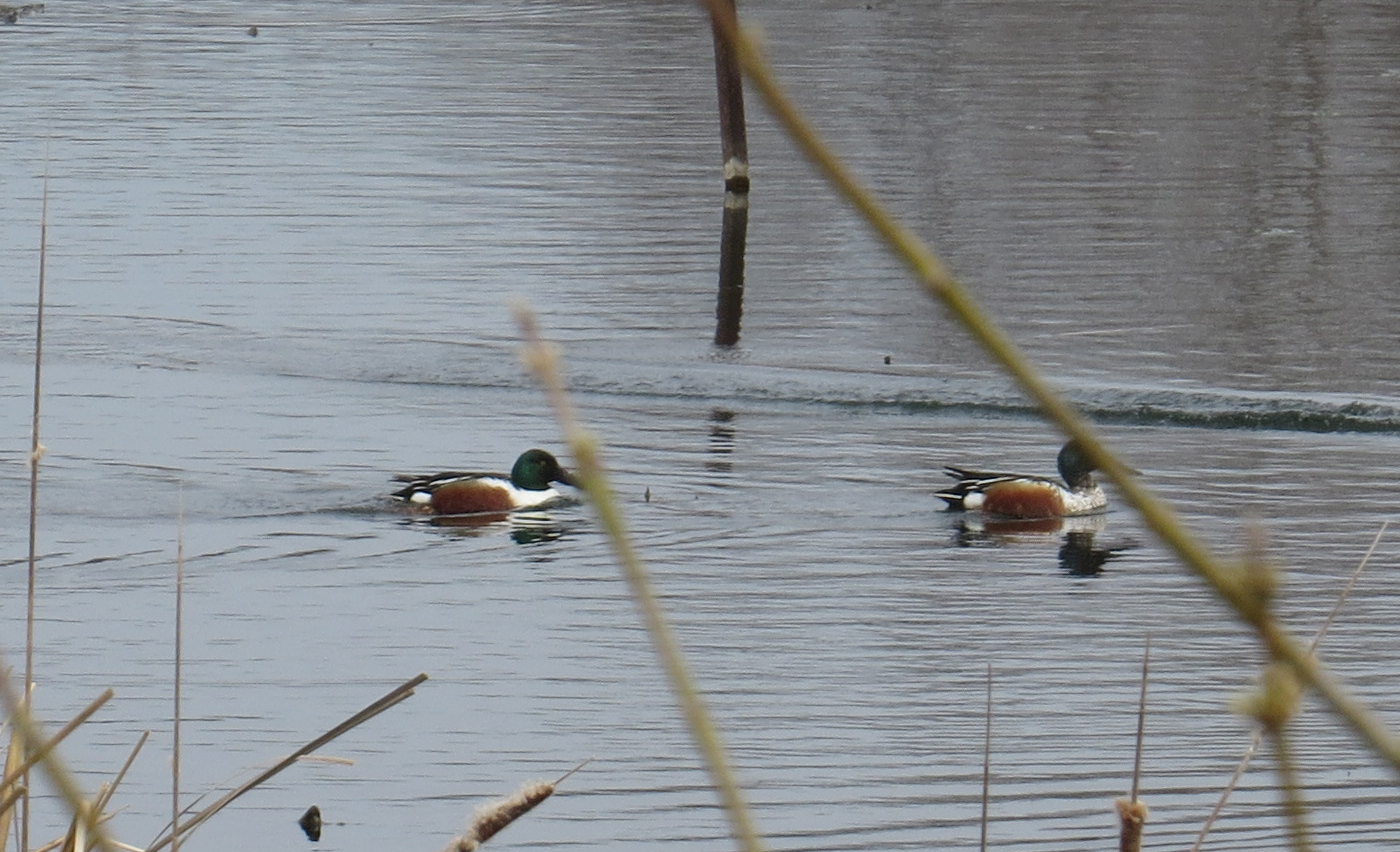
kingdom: Animalia
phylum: Chordata
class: Aves
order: Anseriformes
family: Anatidae
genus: Spatula
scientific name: Spatula clypeata
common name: Northern shoveler
